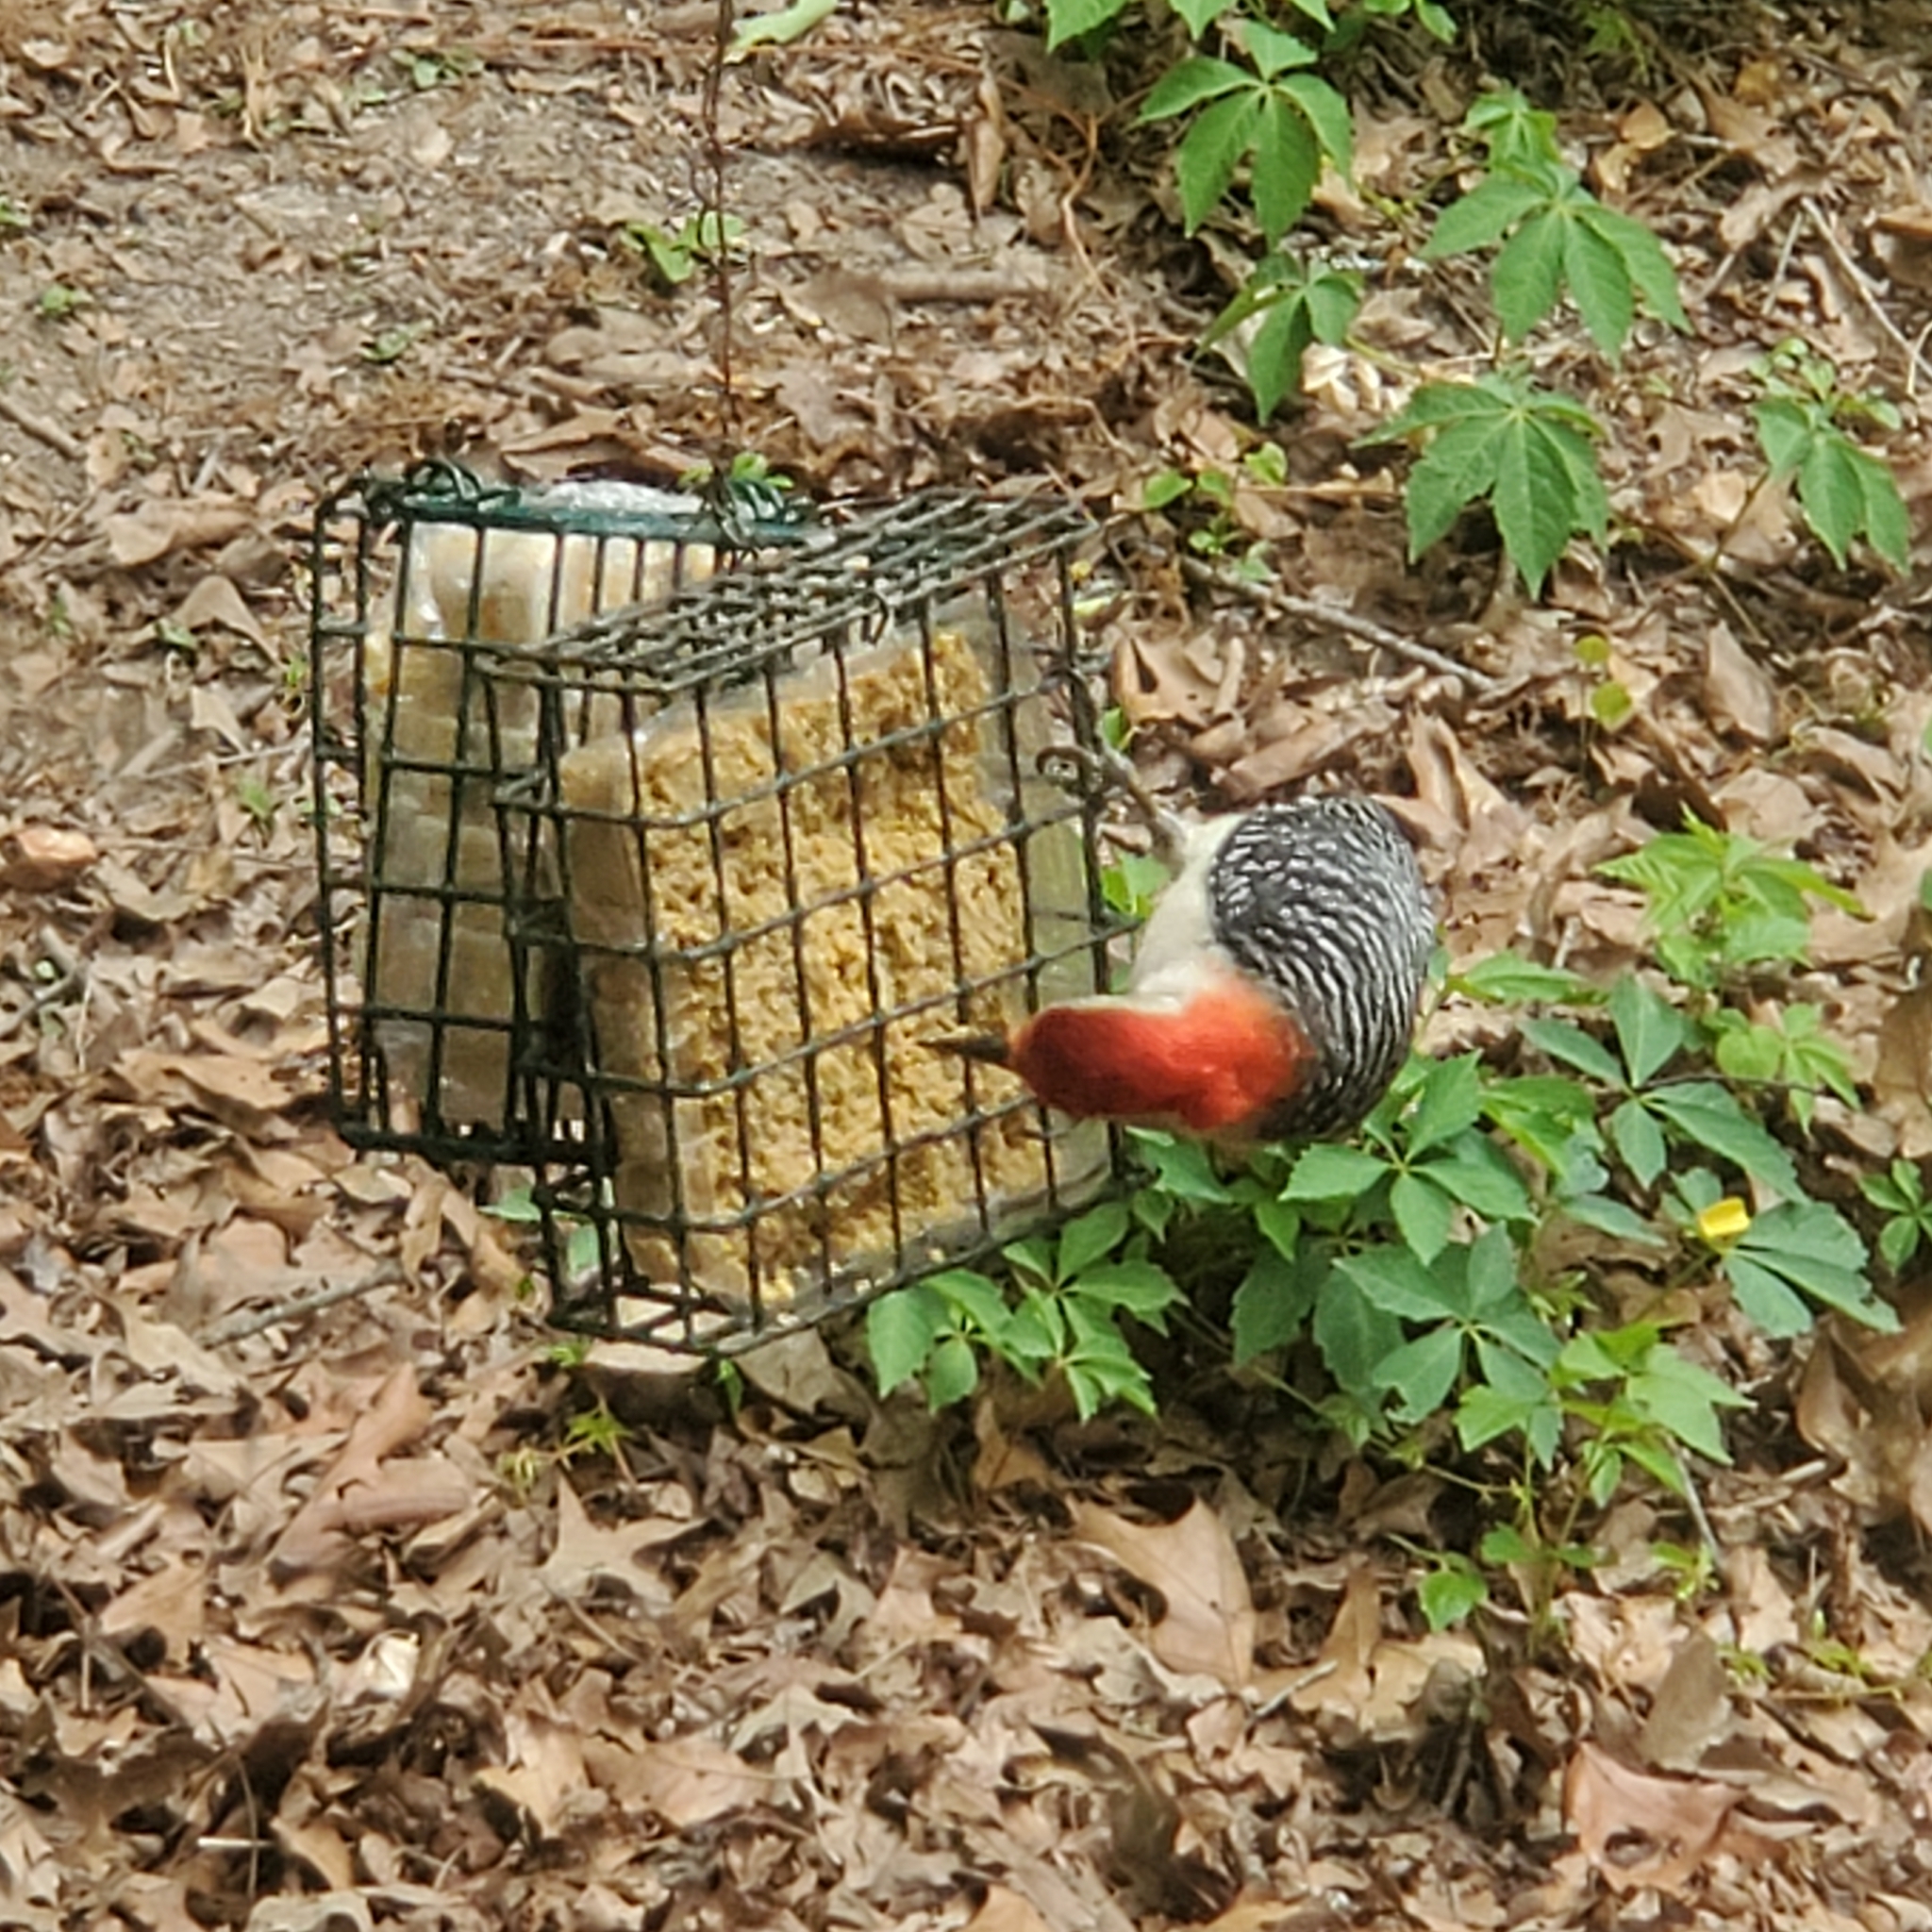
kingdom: Animalia
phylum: Chordata
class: Aves
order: Piciformes
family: Picidae
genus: Melanerpes
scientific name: Melanerpes carolinus
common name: Red-bellied woodpecker
